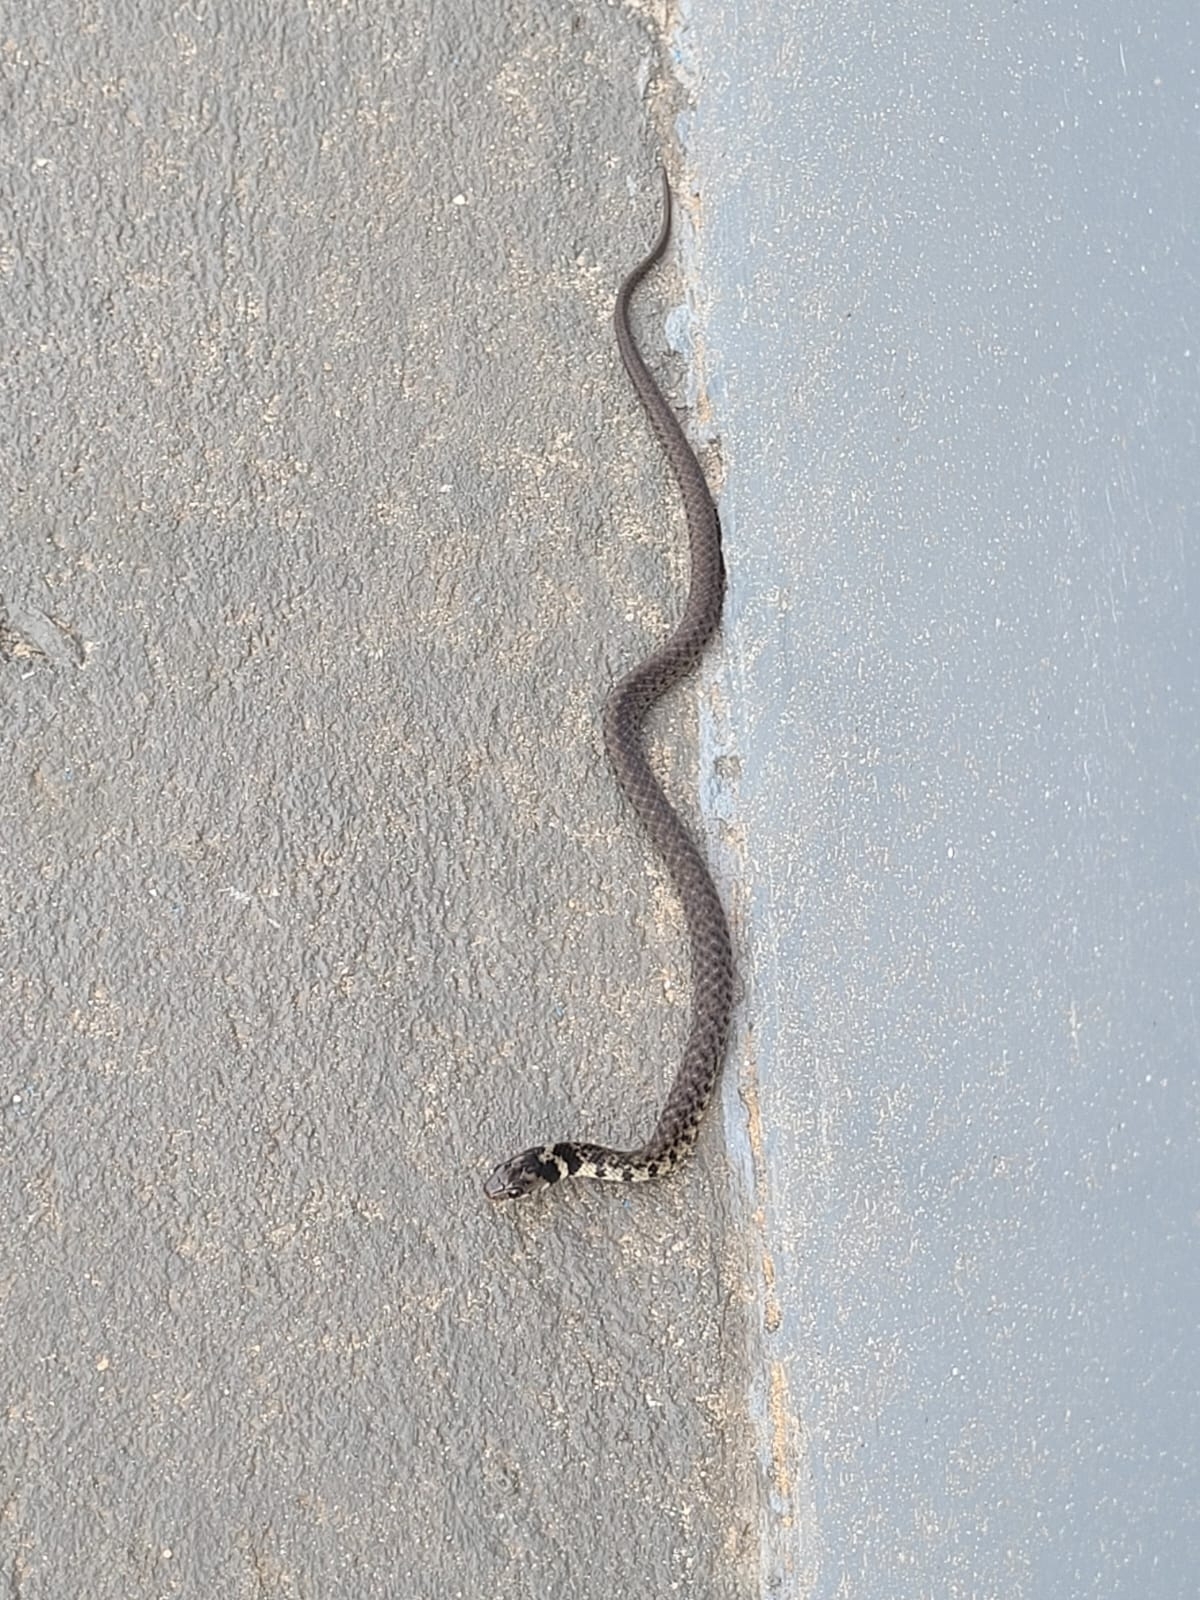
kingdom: Animalia
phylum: Chordata
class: Squamata
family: Colubridae
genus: Erythrolamprus
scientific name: Erythrolamprus miliaris
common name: Military ground snake
